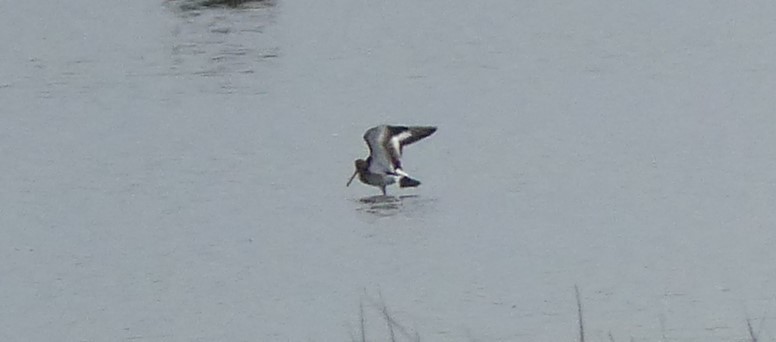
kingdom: Animalia
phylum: Chordata
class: Aves
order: Charadriiformes
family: Scolopacidae
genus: Limosa
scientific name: Limosa limosa
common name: Black-tailed godwit
